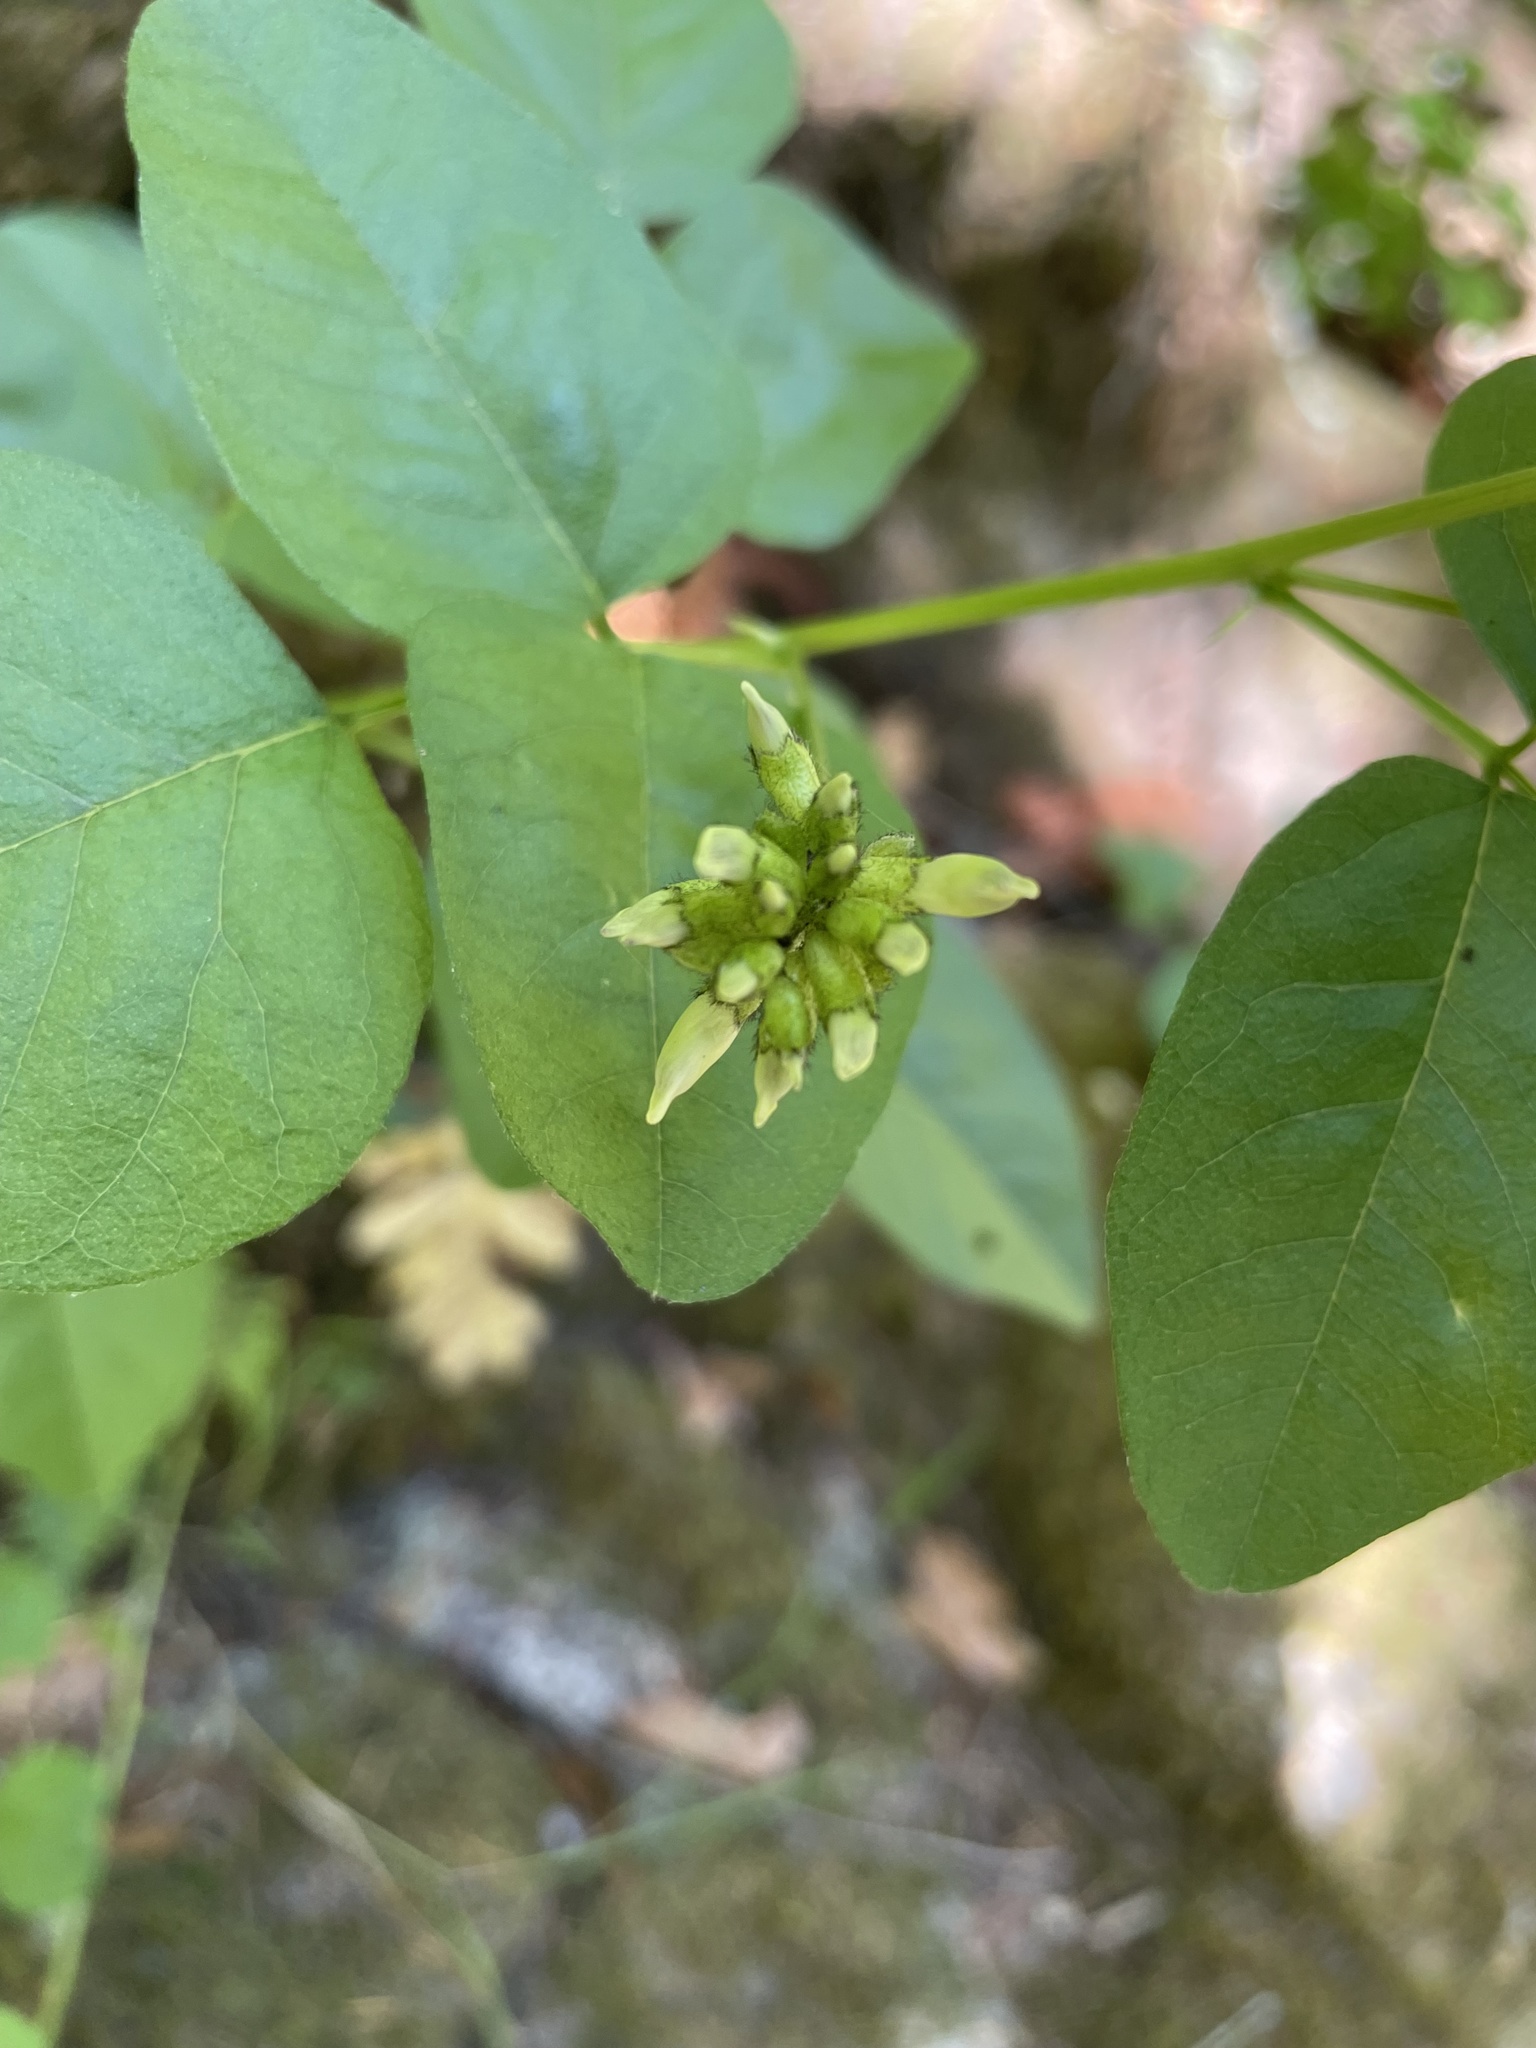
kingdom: Plantae
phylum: Tracheophyta
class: Magnoliopsida
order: Fabales
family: Fabaceae
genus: Rupertia
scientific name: Rupertia physodes
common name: California-tea
